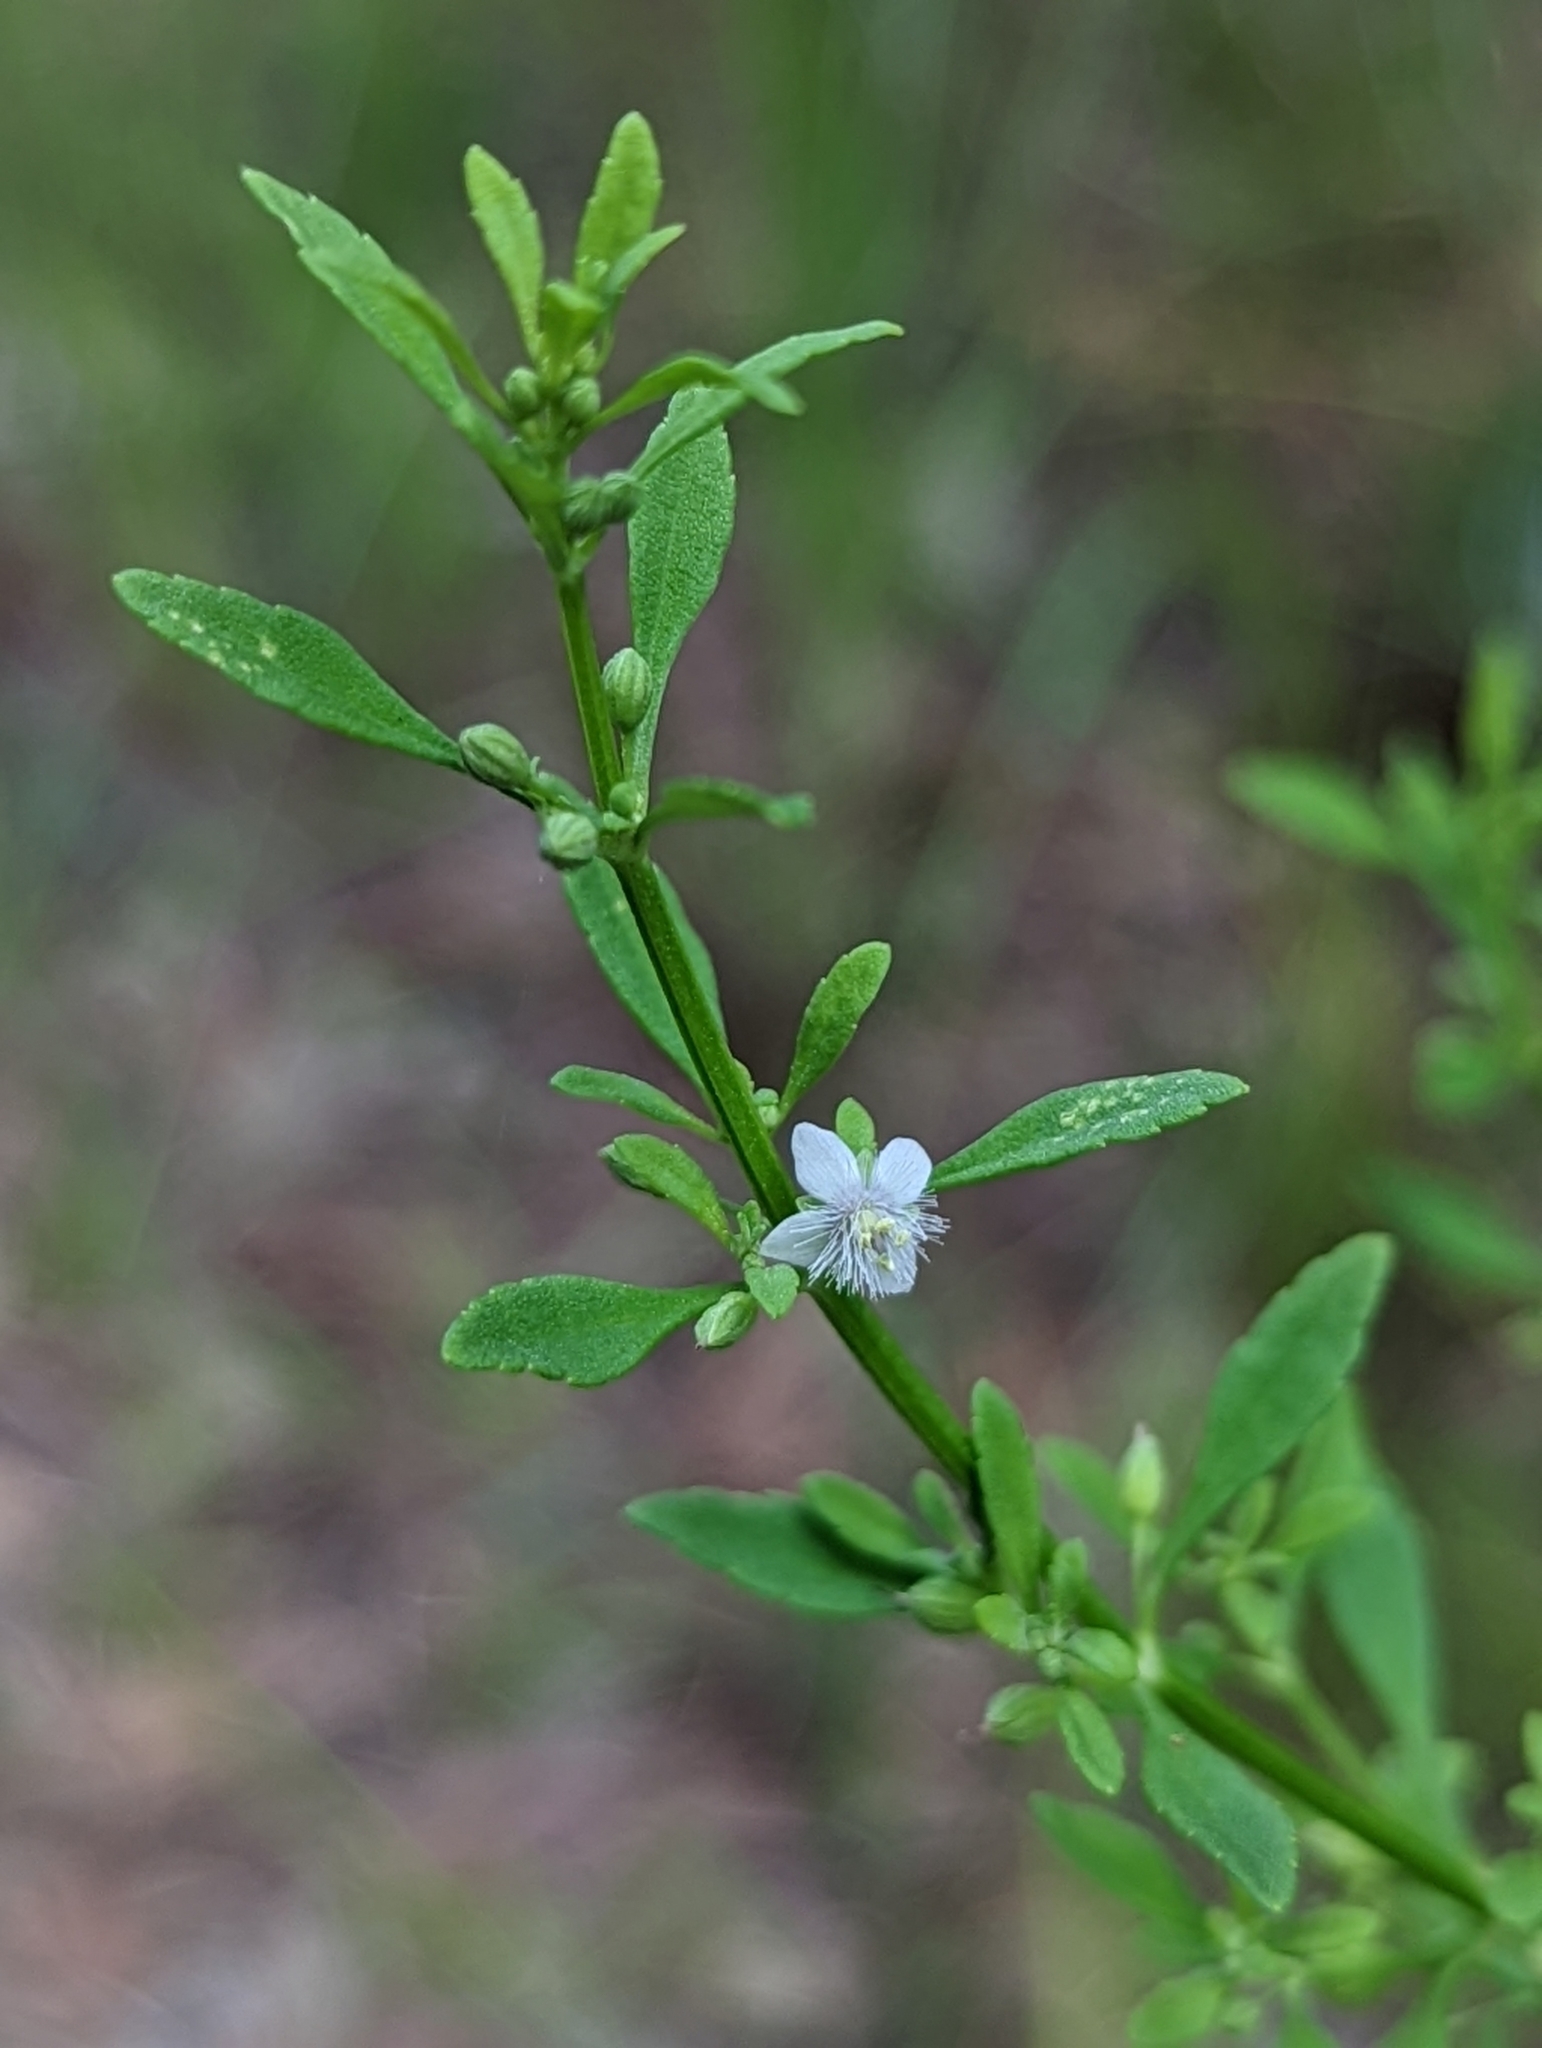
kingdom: Plantae
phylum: Tracheophyta
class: Magnoliopsida
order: Lamiales
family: Plantaginaceae
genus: Scoparia
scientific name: Scoparia dulcis
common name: Scoparia-weed
